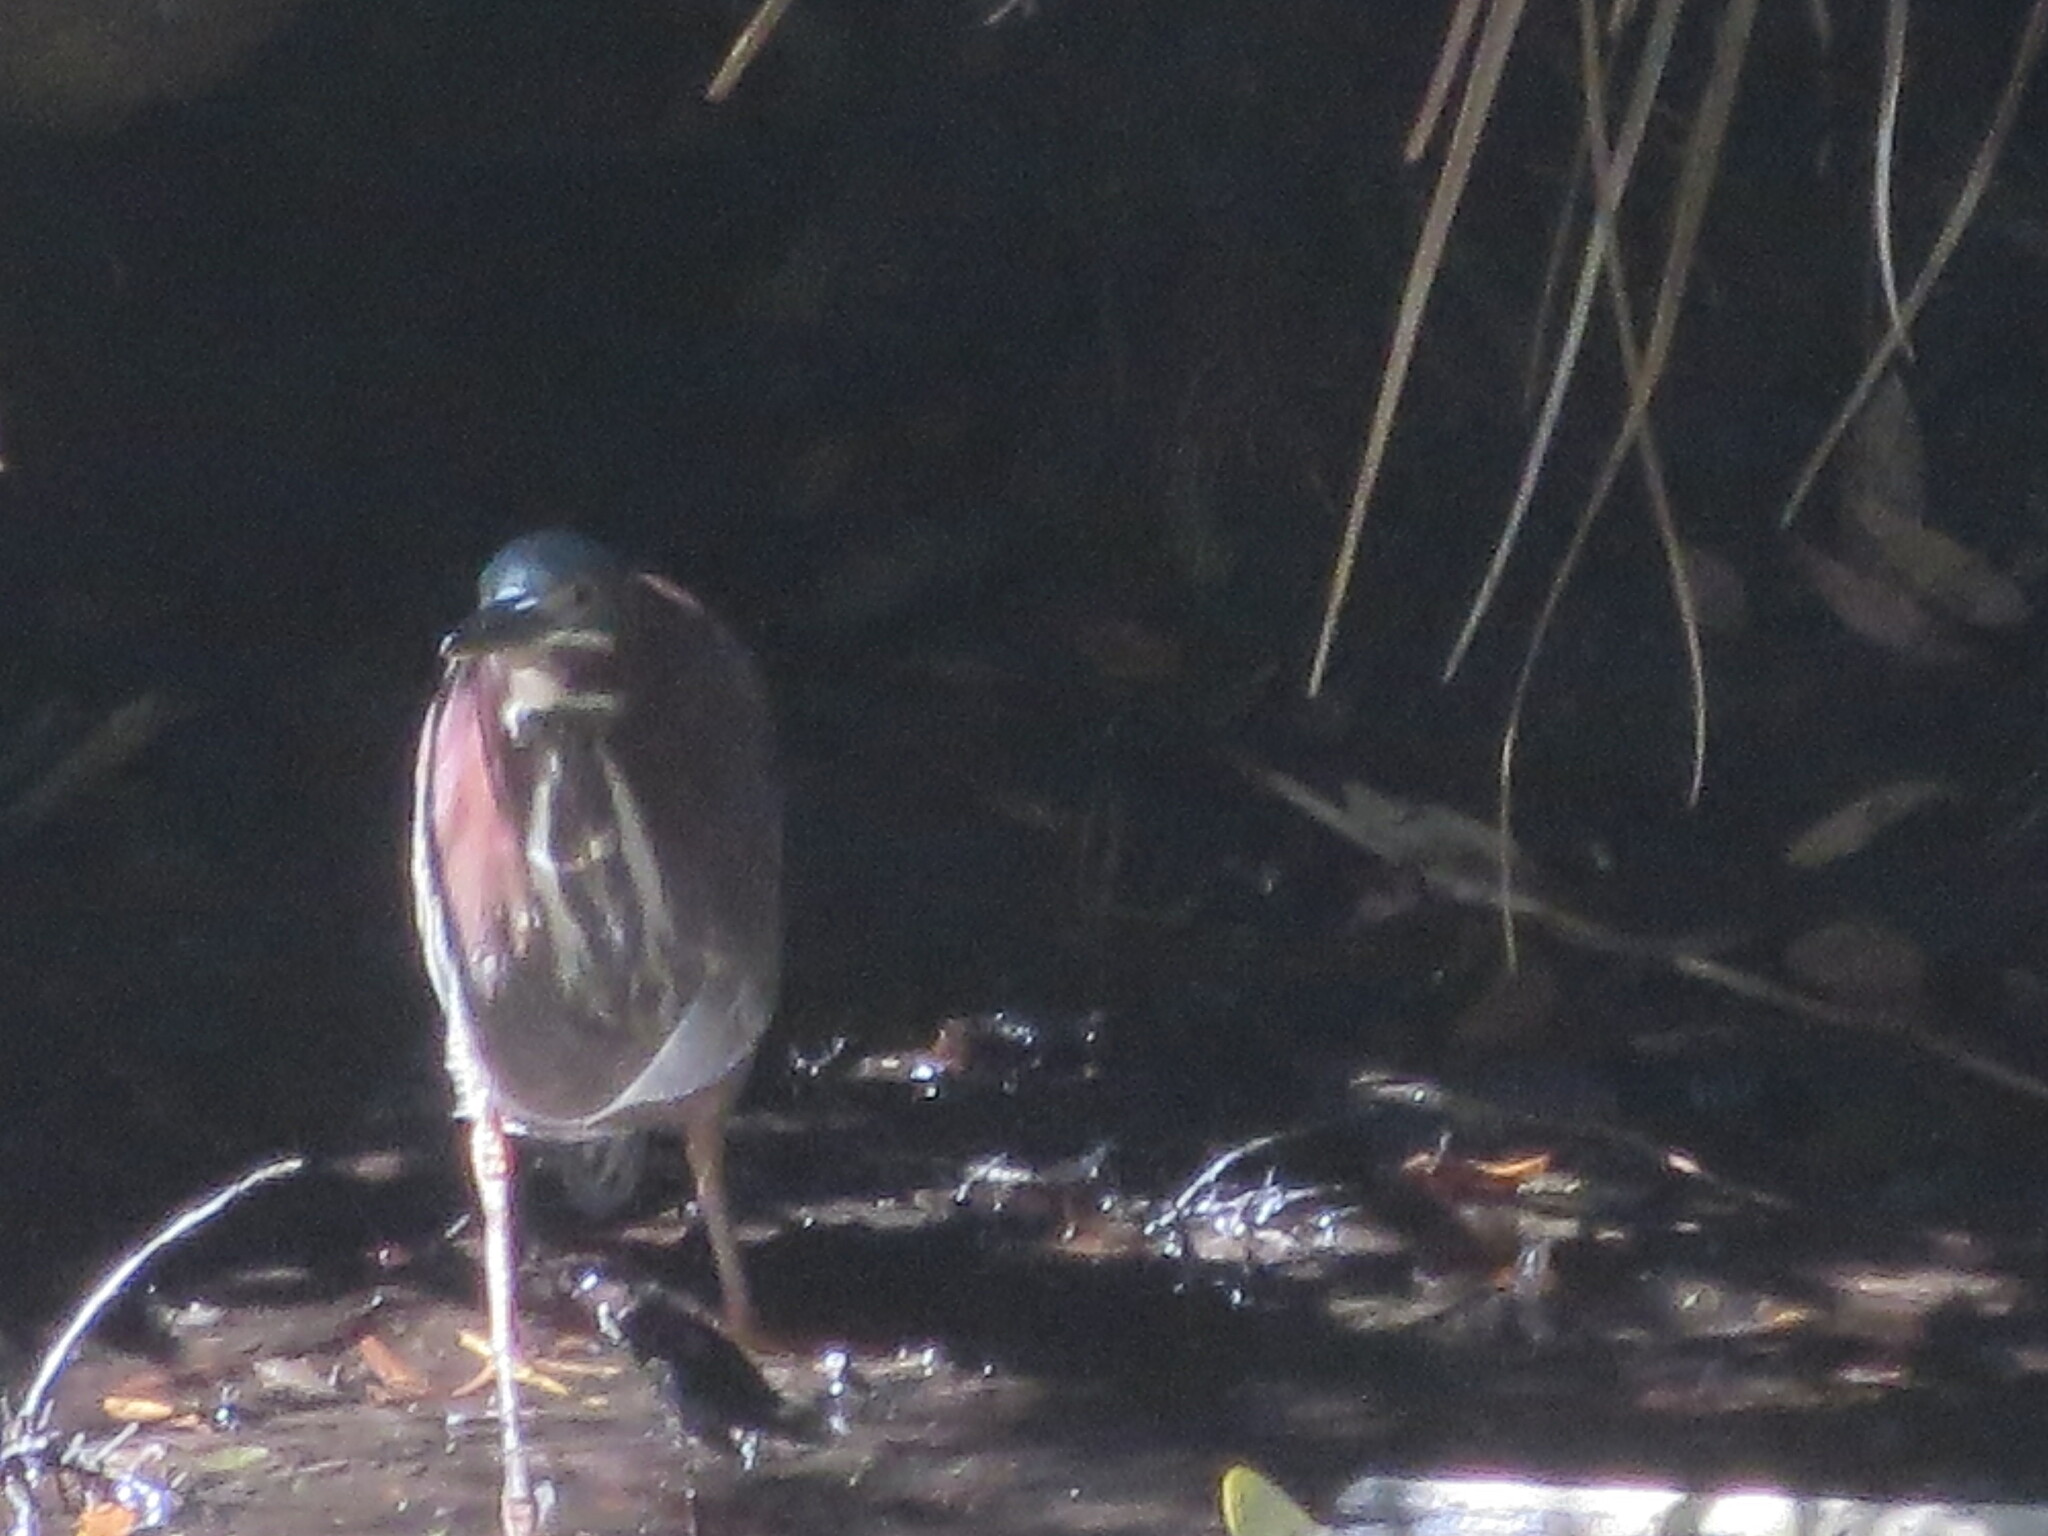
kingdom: Animalia
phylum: Chordata
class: Aves
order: Pelecaniformes
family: Ardeidae
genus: Butorides
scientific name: Butorides virescens
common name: Green heron
